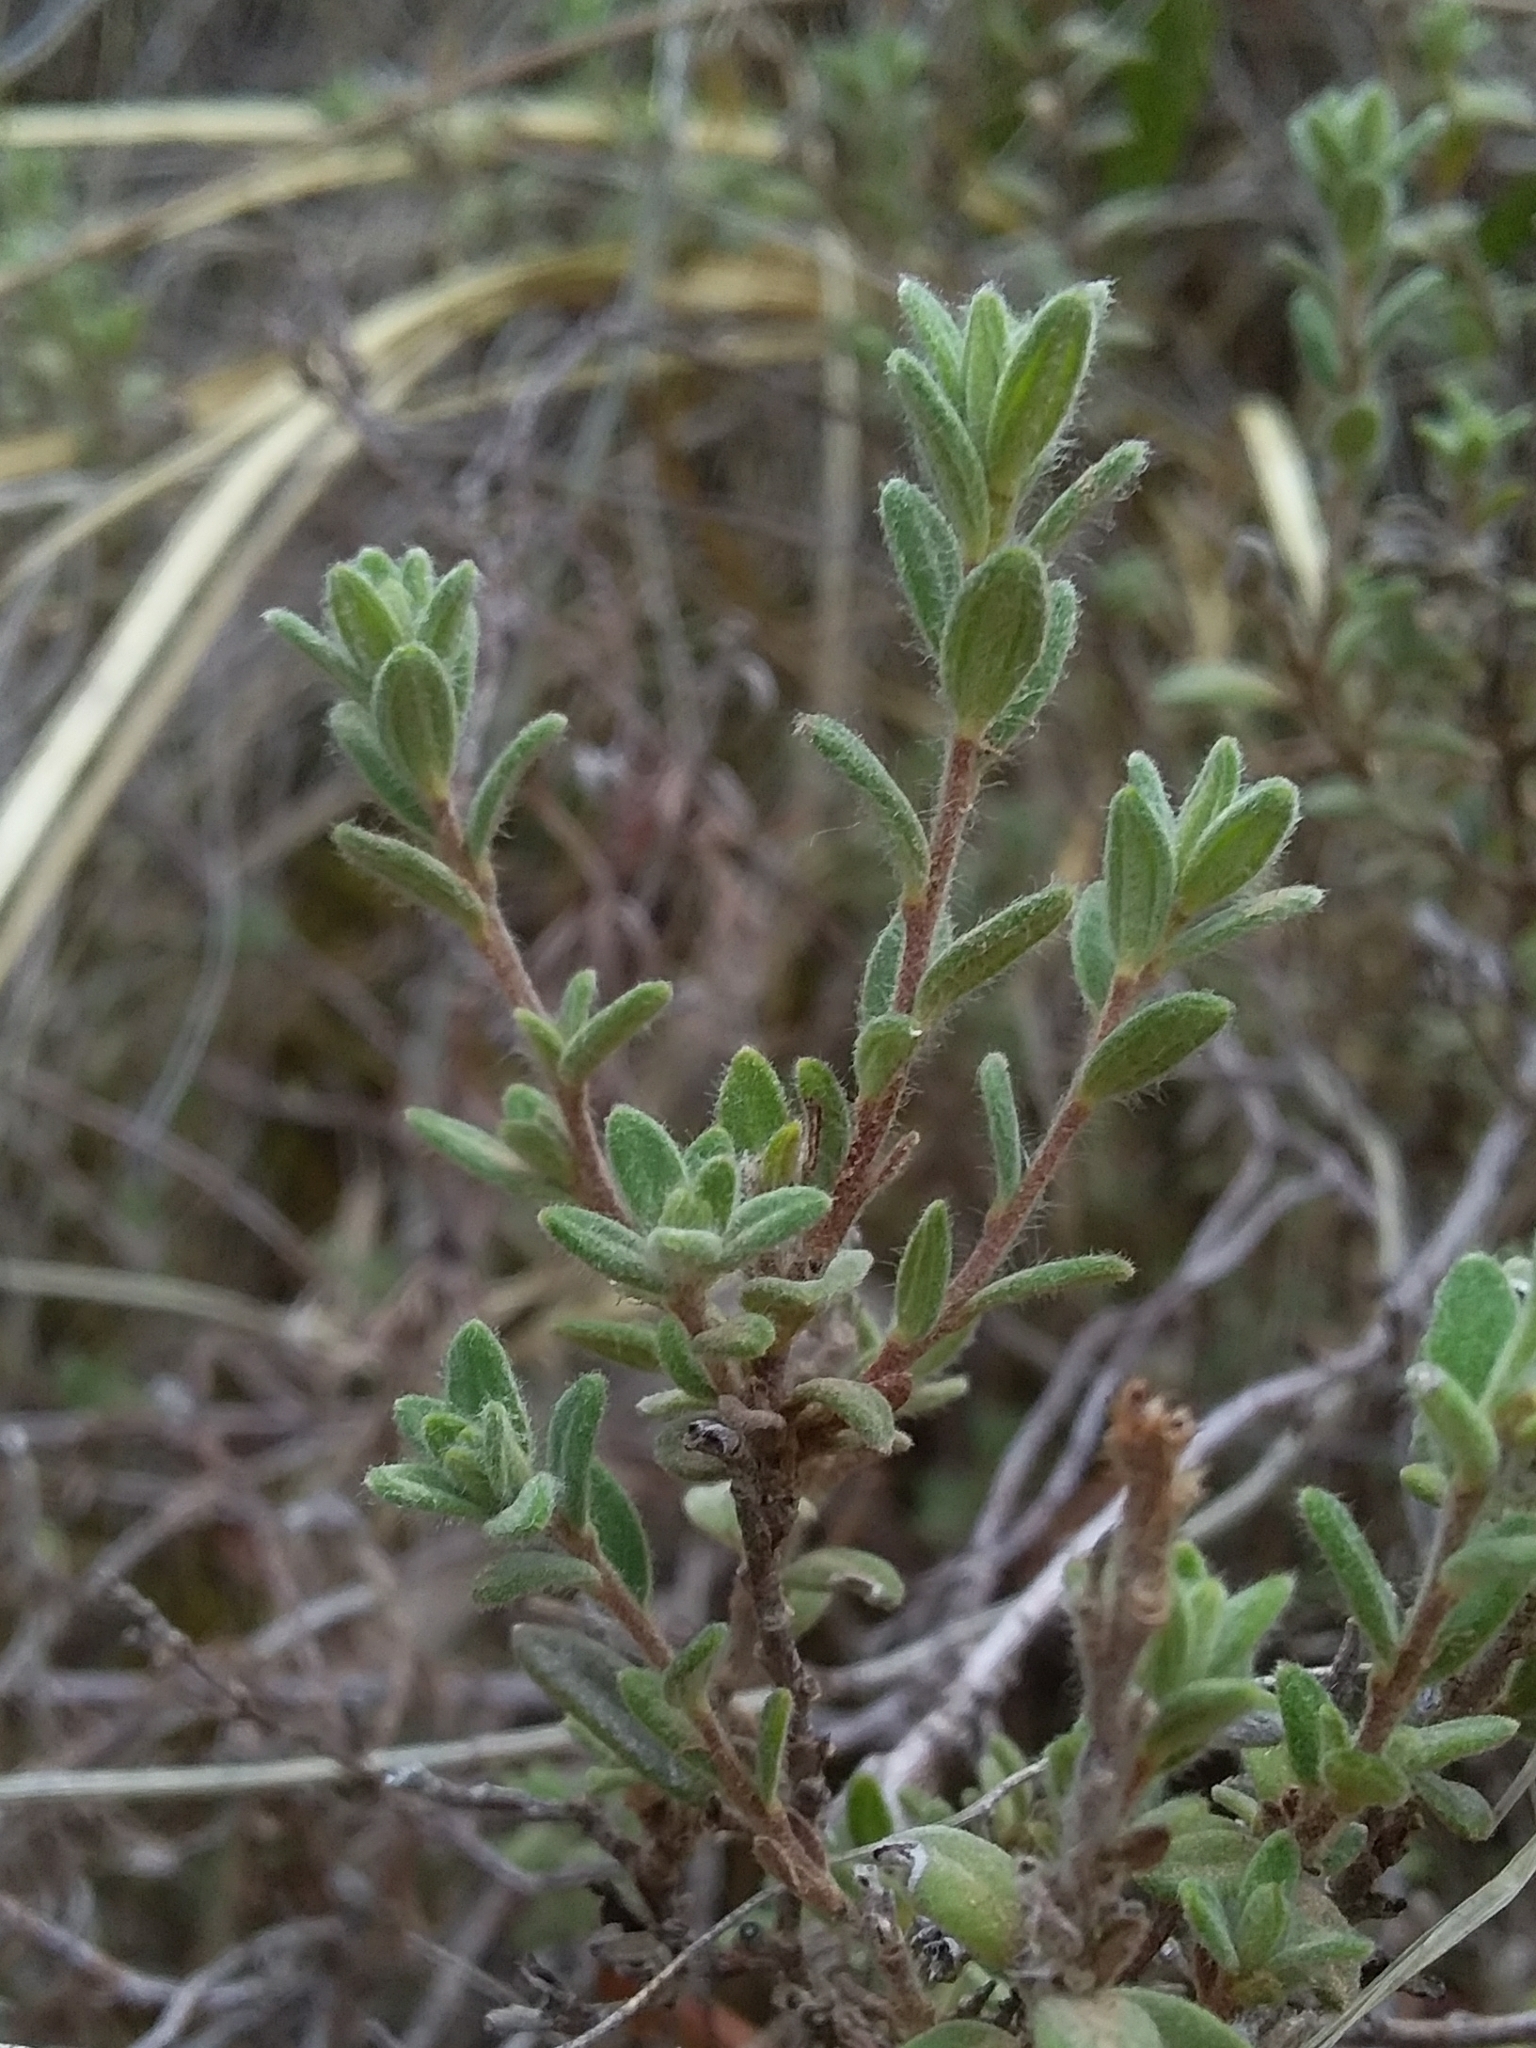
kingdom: Plantae
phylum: Tracheophyta
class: Magnoliopsida
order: Dilleniales
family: Dilleniaceae
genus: Hibbertia
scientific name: Hibbertia crinita
